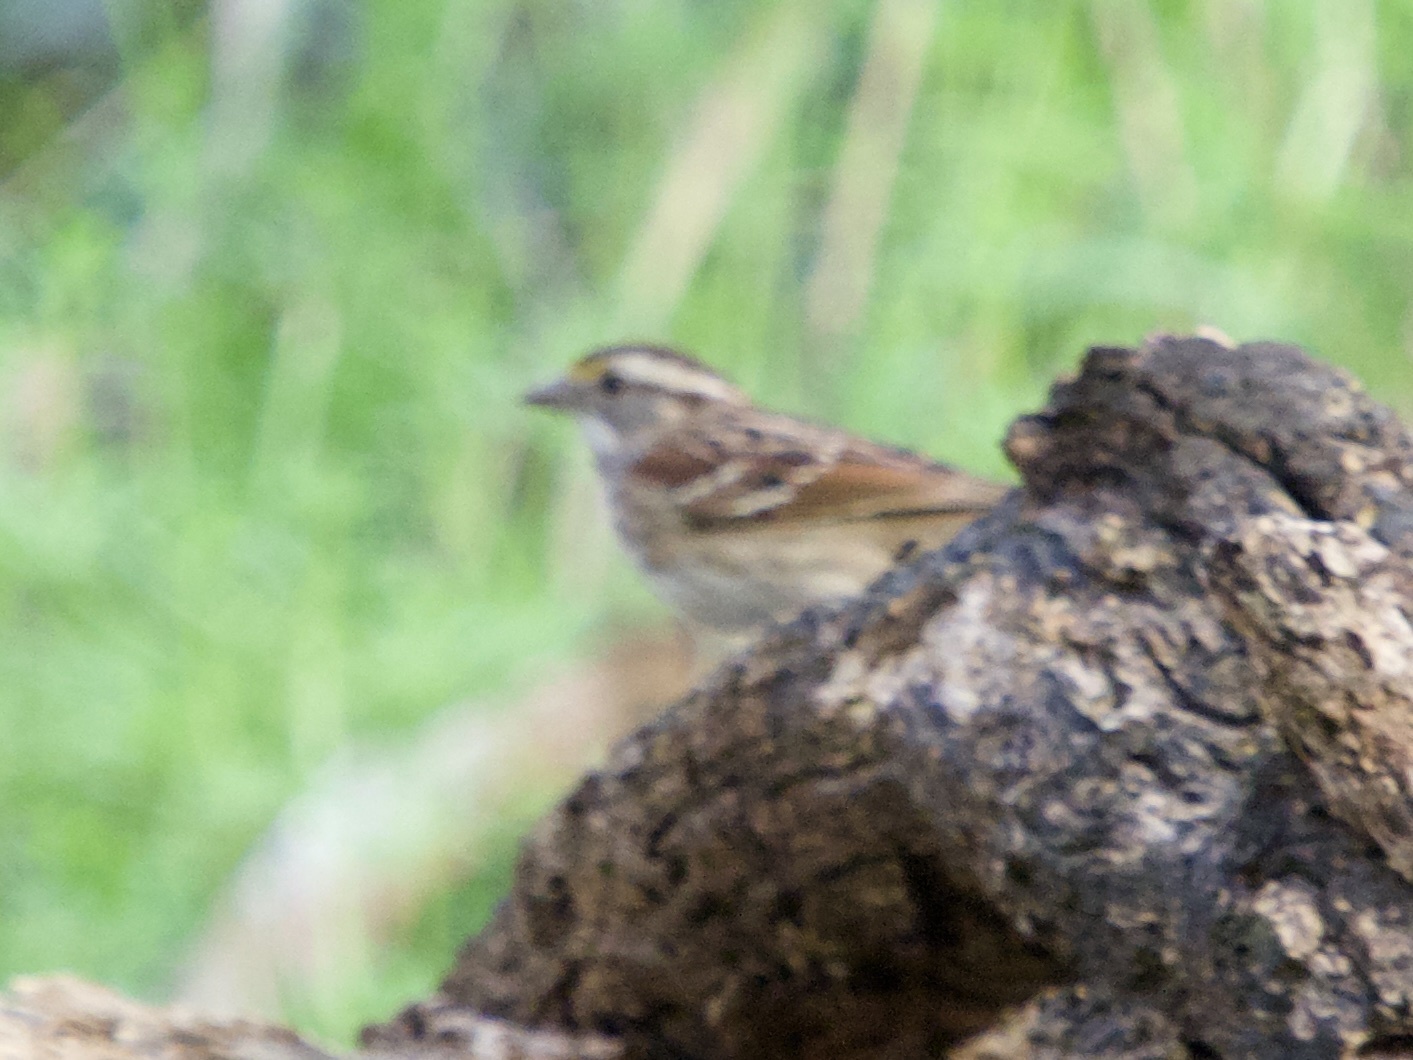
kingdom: Animalia
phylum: Chordata
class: Aves
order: Passeriformes
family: Passerellidae
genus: Zonotrichia
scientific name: Zonotrichia albicollis
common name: White-throated sparrow
